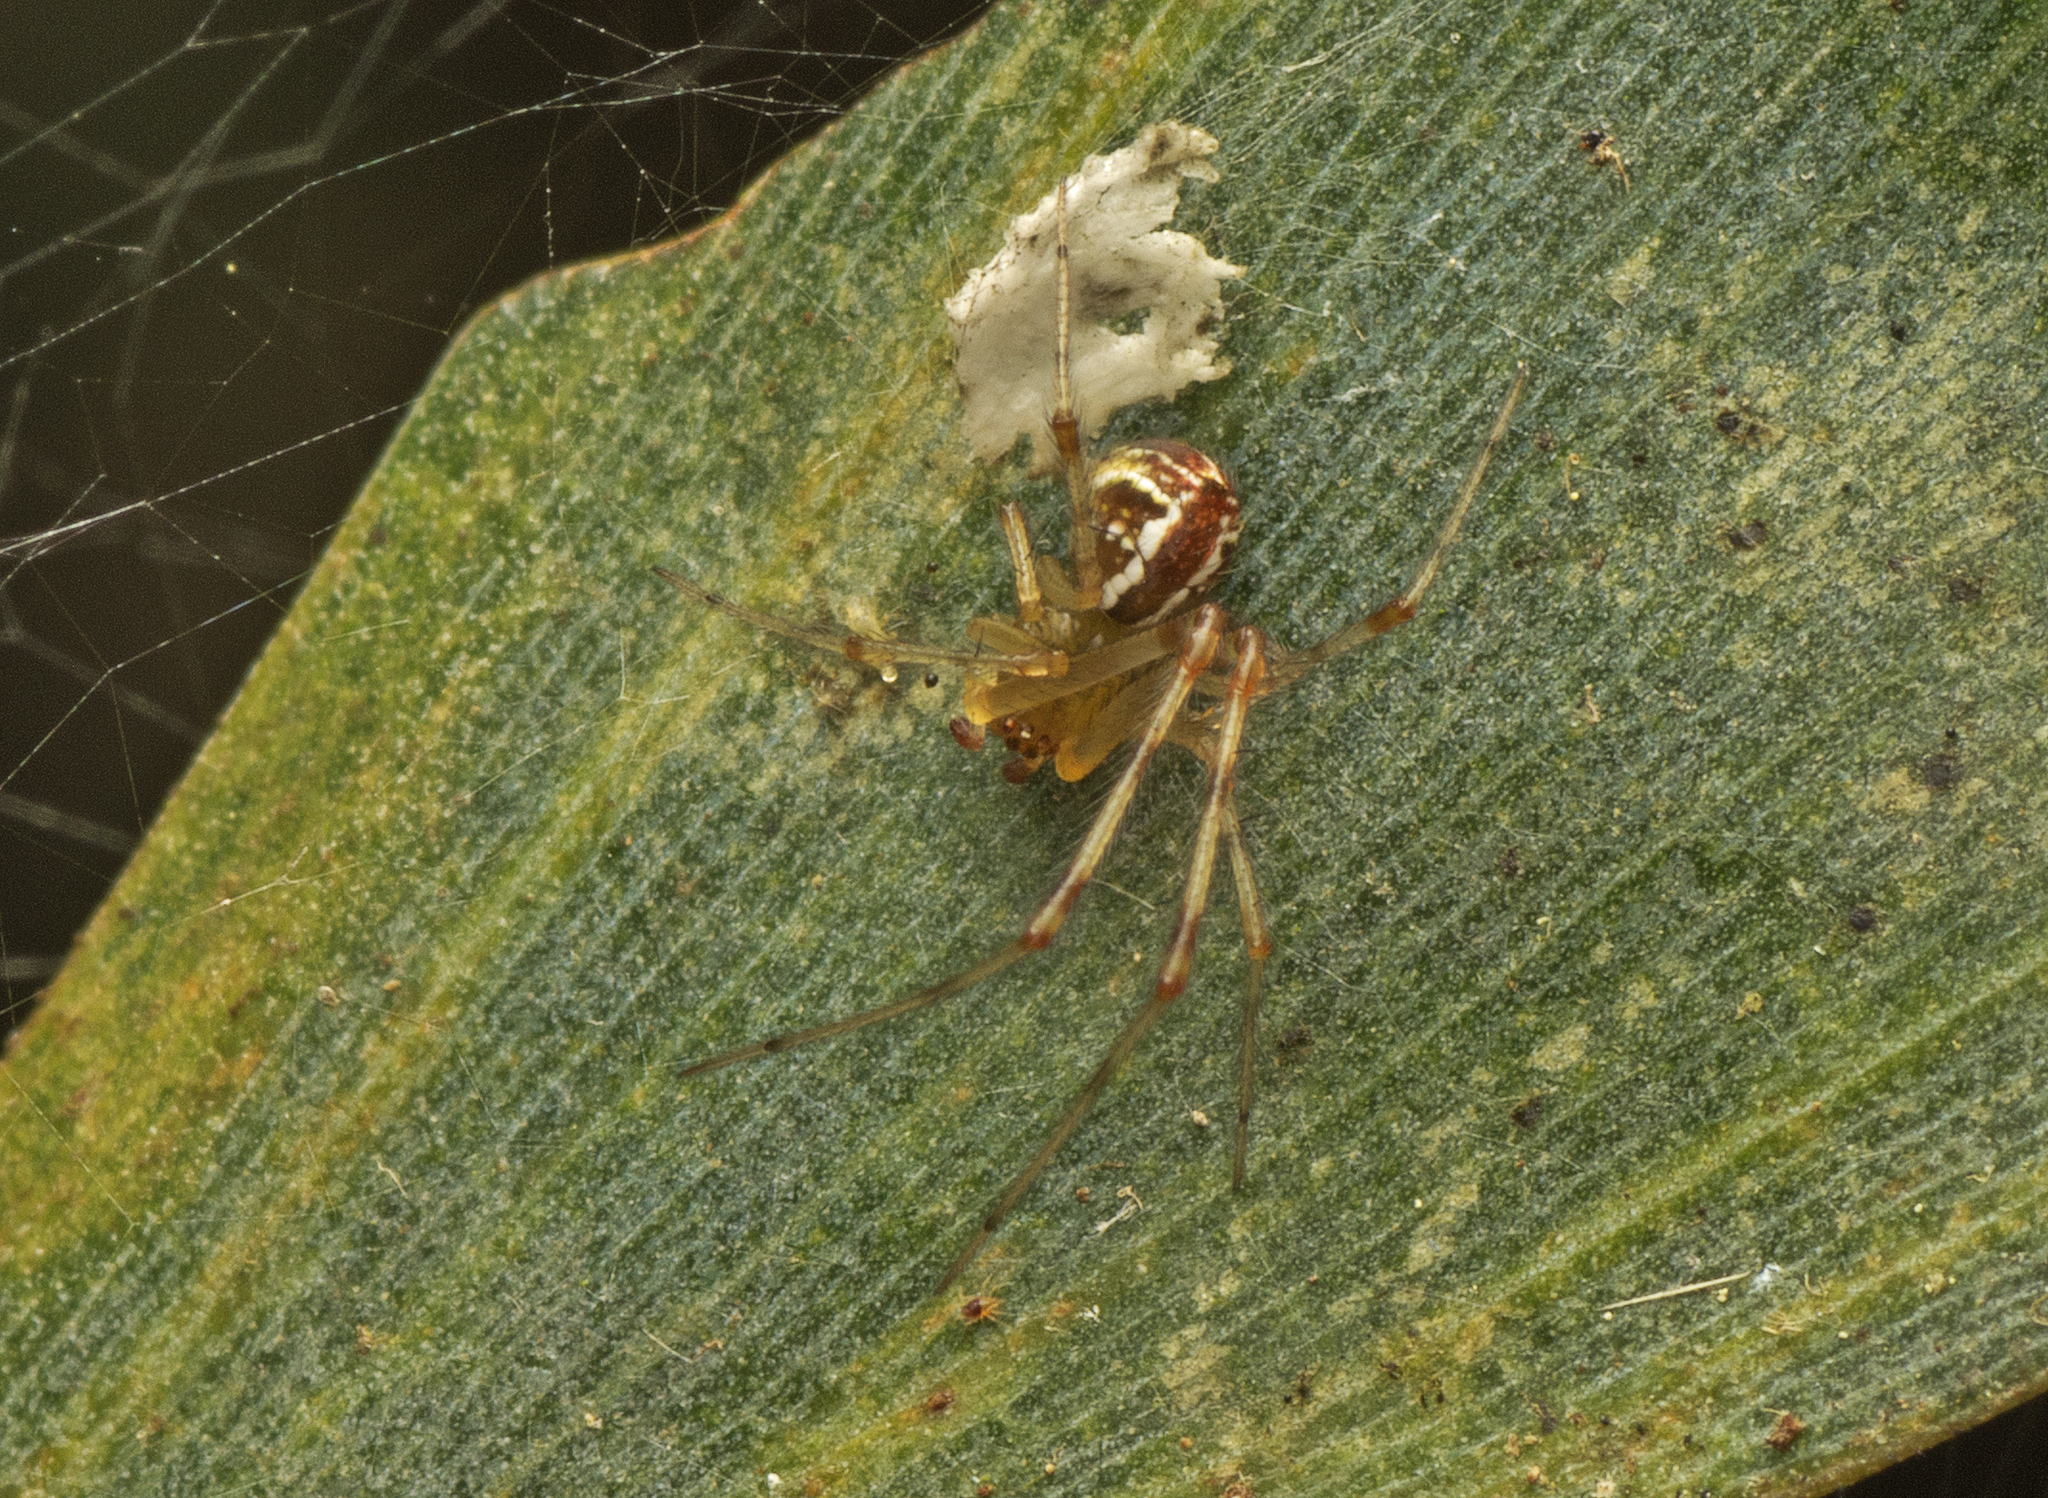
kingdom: Animalia
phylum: Arthropoda
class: Arachnida
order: Araneae
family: Theridiidae
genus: Theridion
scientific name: Theridion pyramidale
